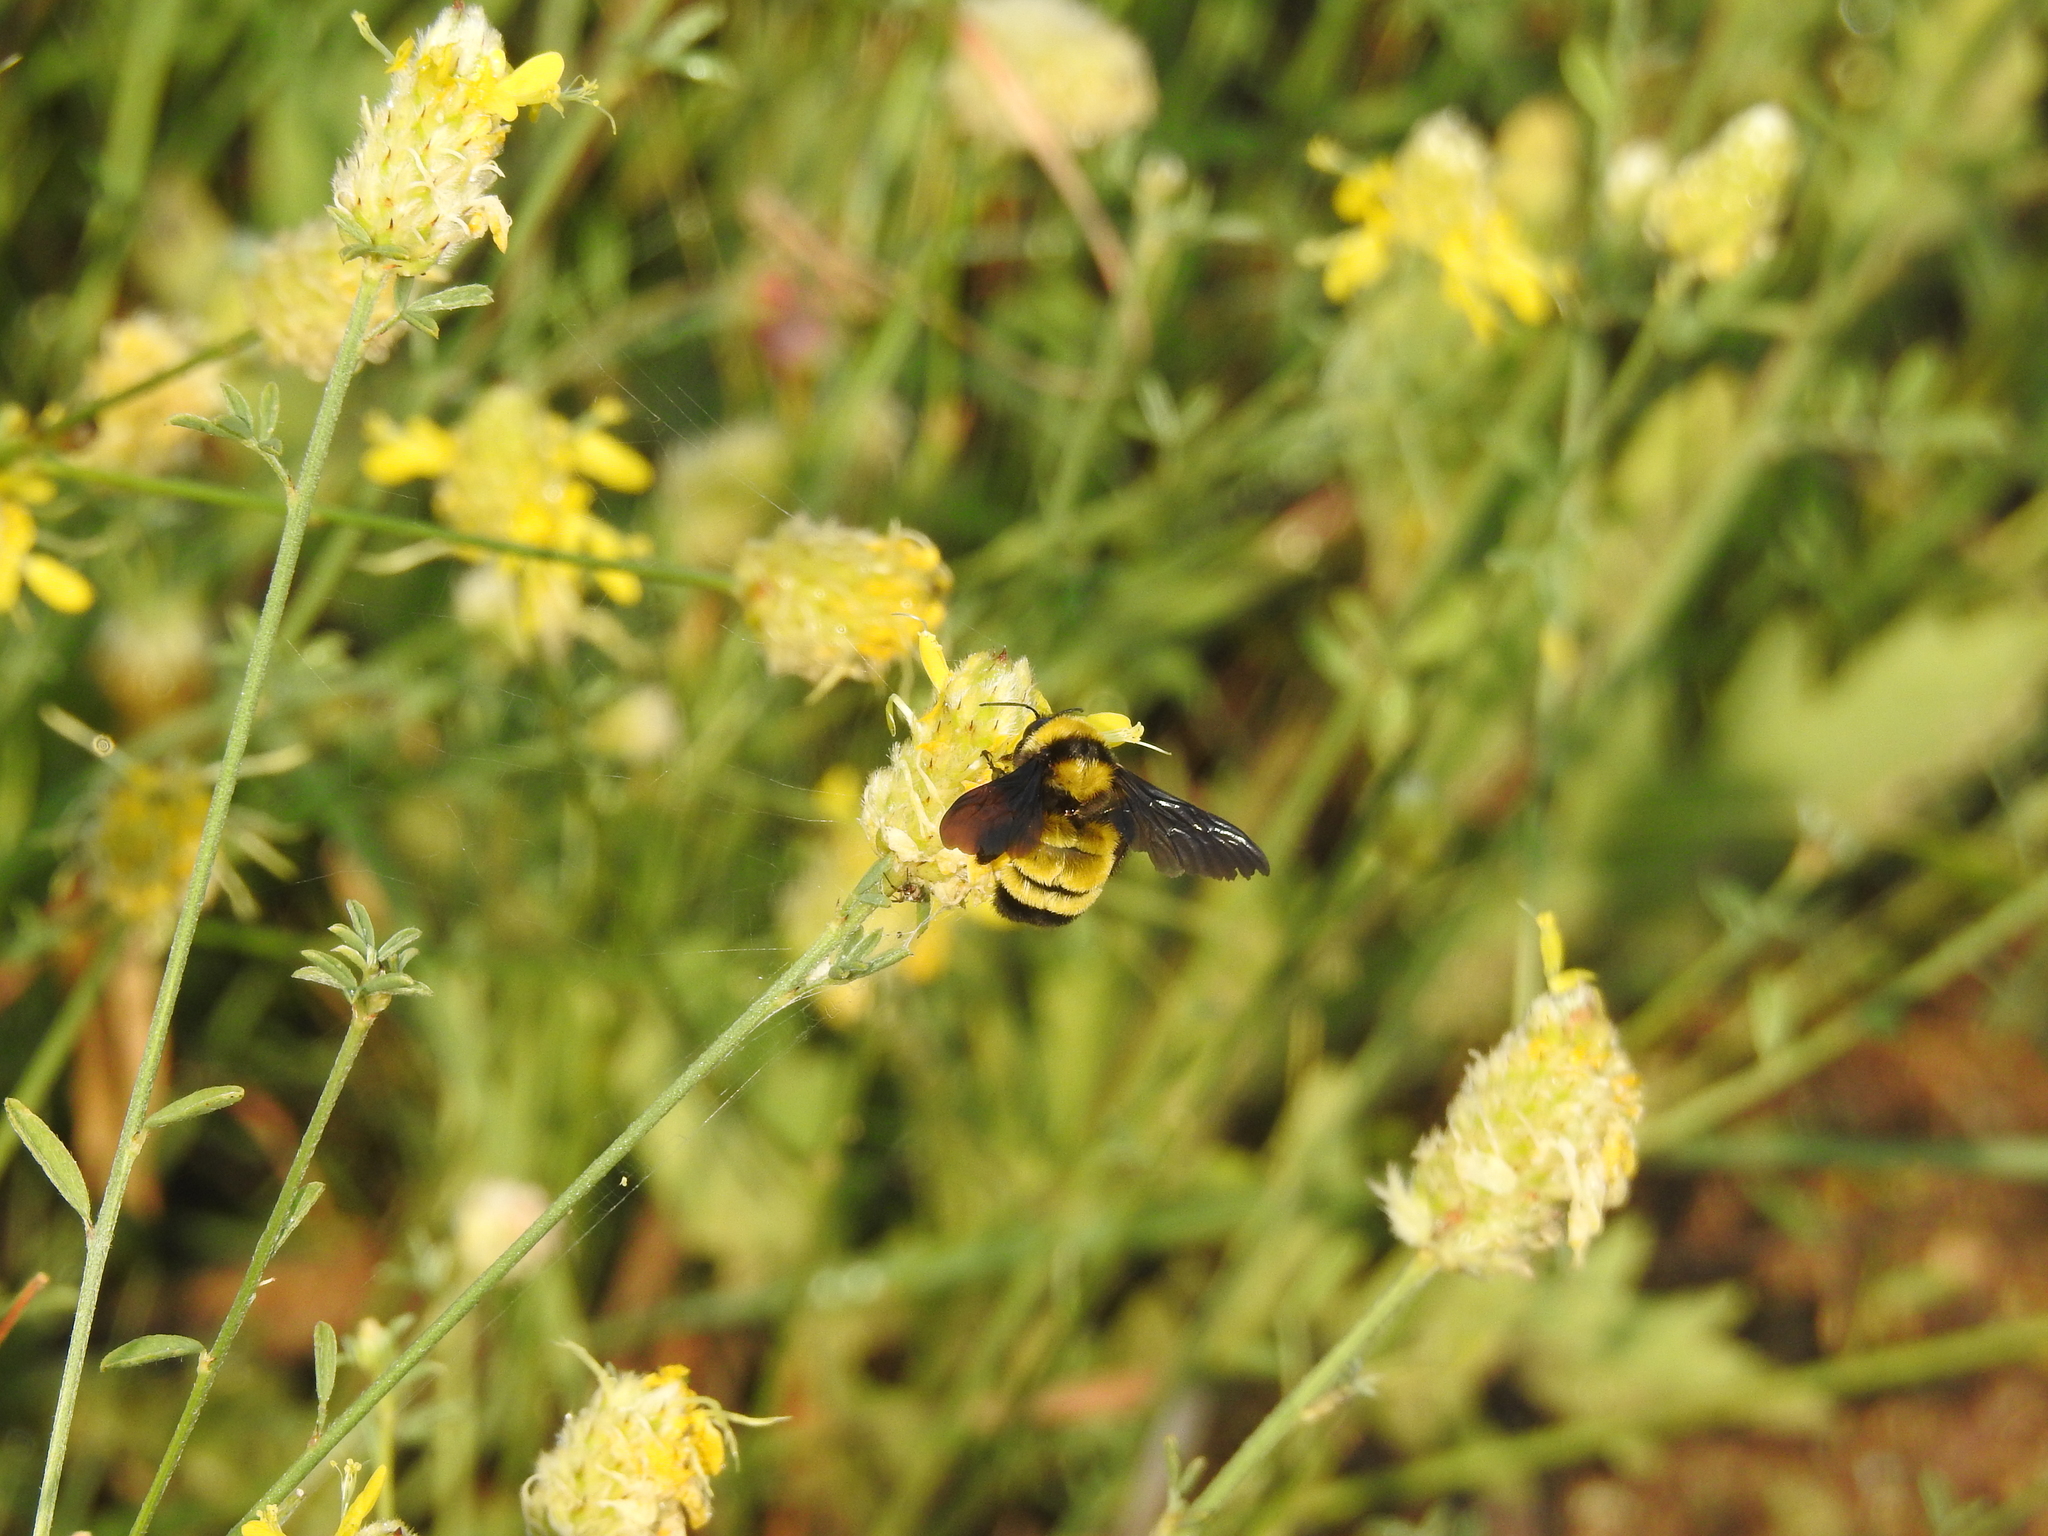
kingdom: Animalia
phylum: Arthropoda
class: Insecta
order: Hymenoptera
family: Apidae
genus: Bombus
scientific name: Bombus sonorus
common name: Sonoran bumble bee
